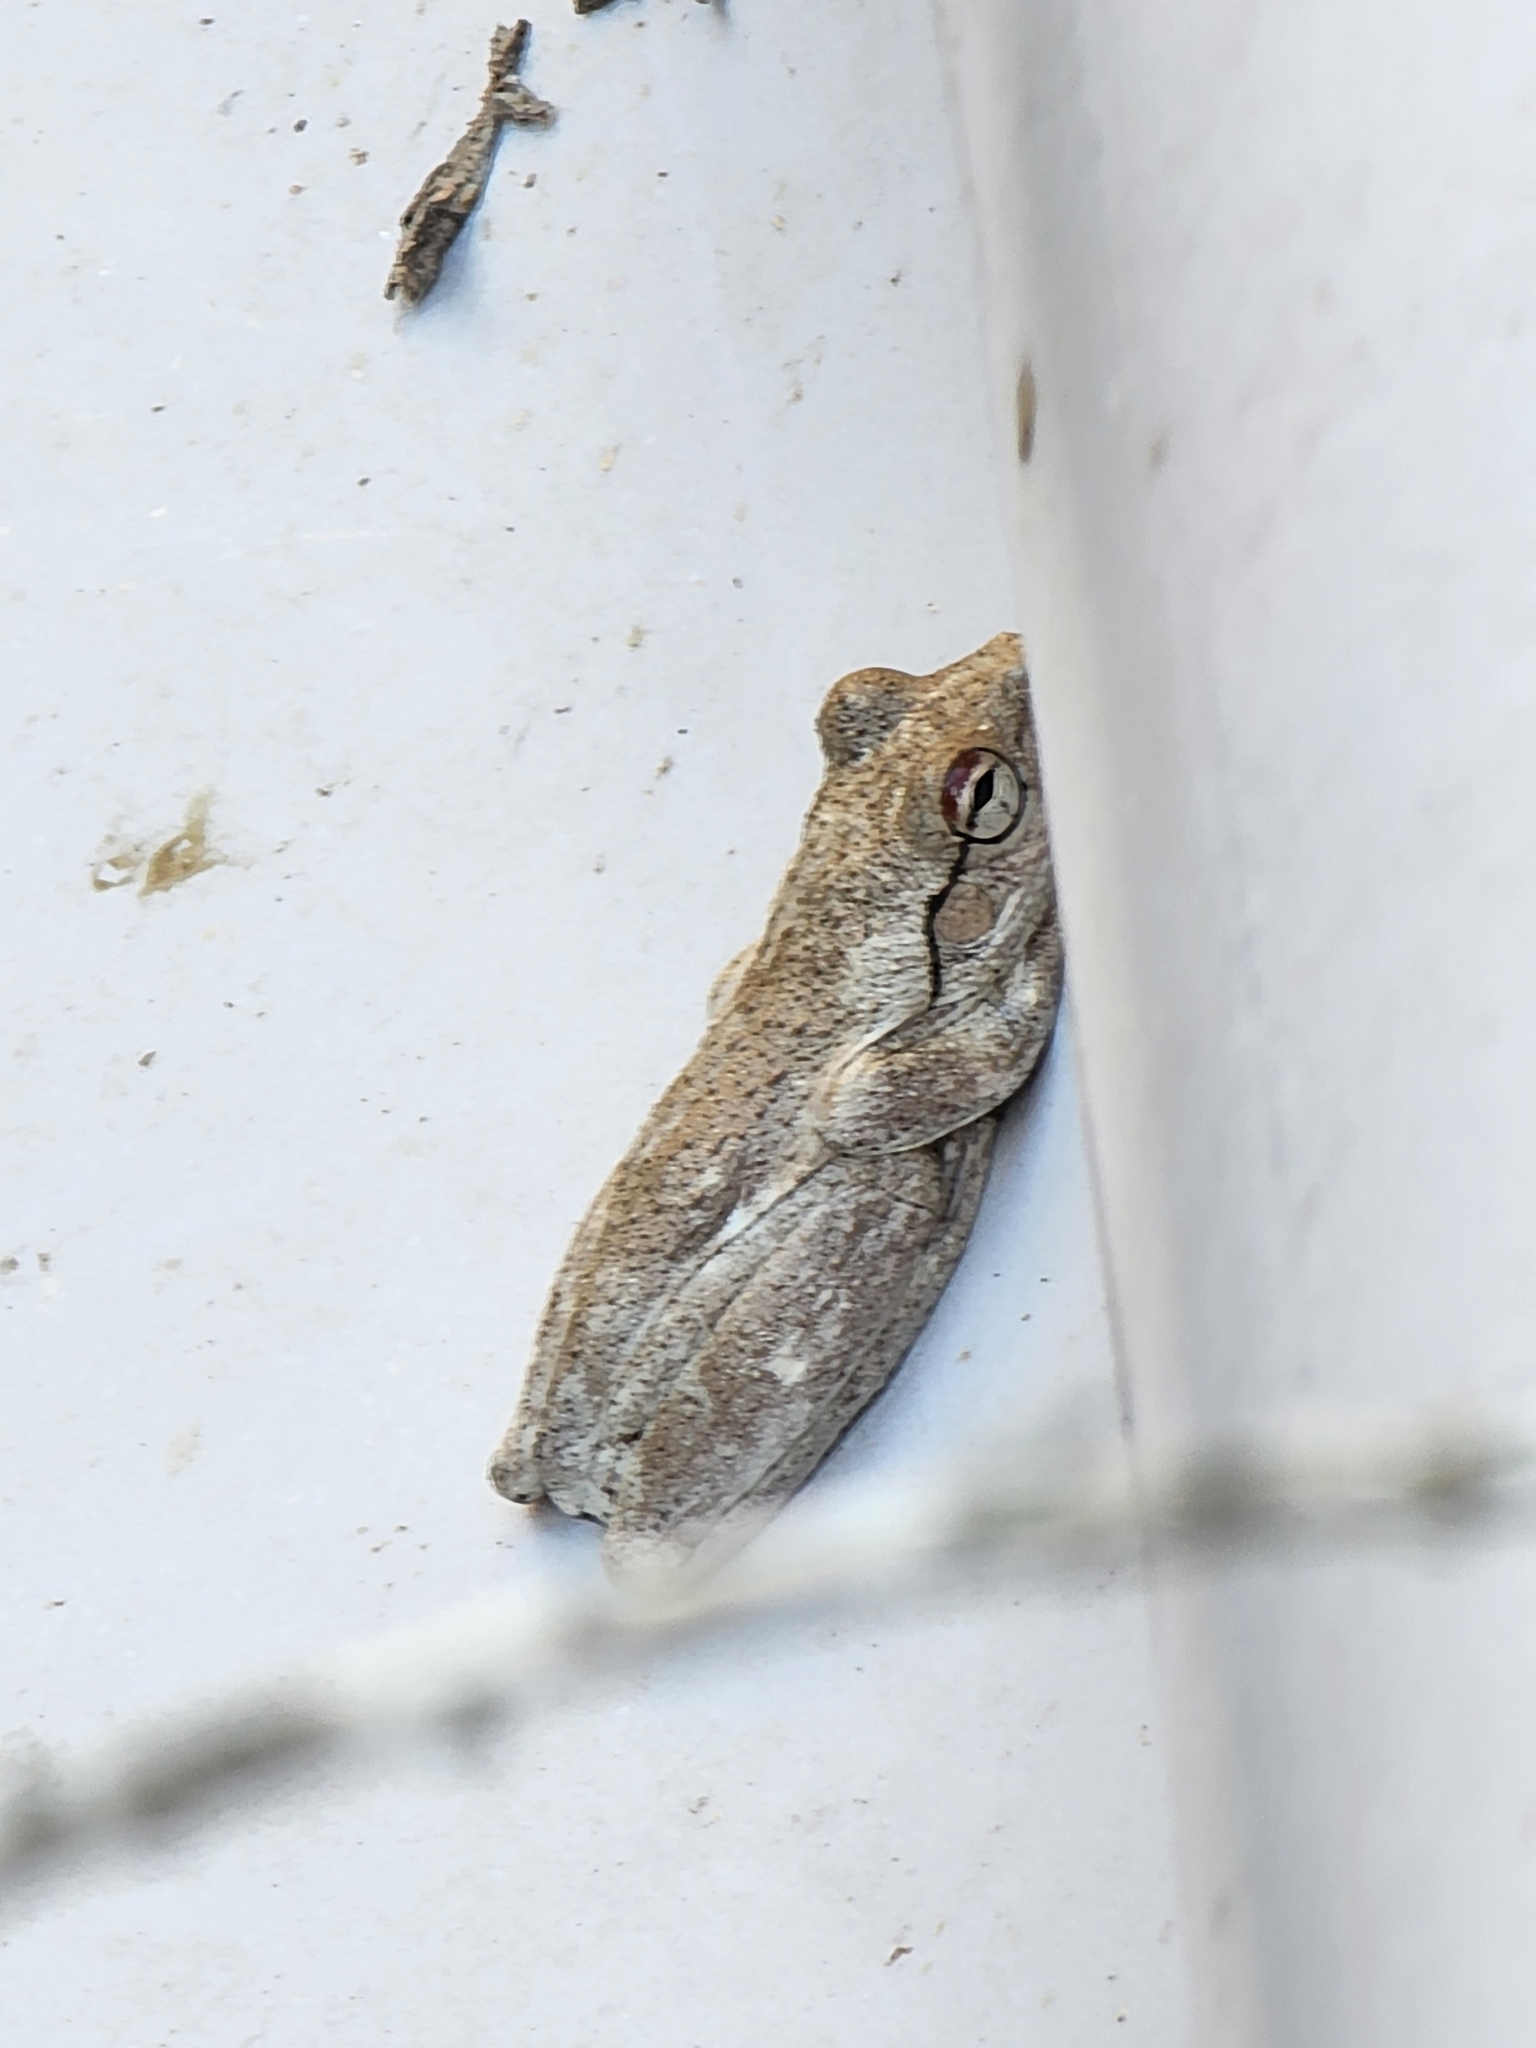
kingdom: Animalia
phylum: Chordata
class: Amphibia
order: Anura
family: Pelodryadidae
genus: Litoria
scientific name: Litoria rothii
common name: Roth’s tree frog
